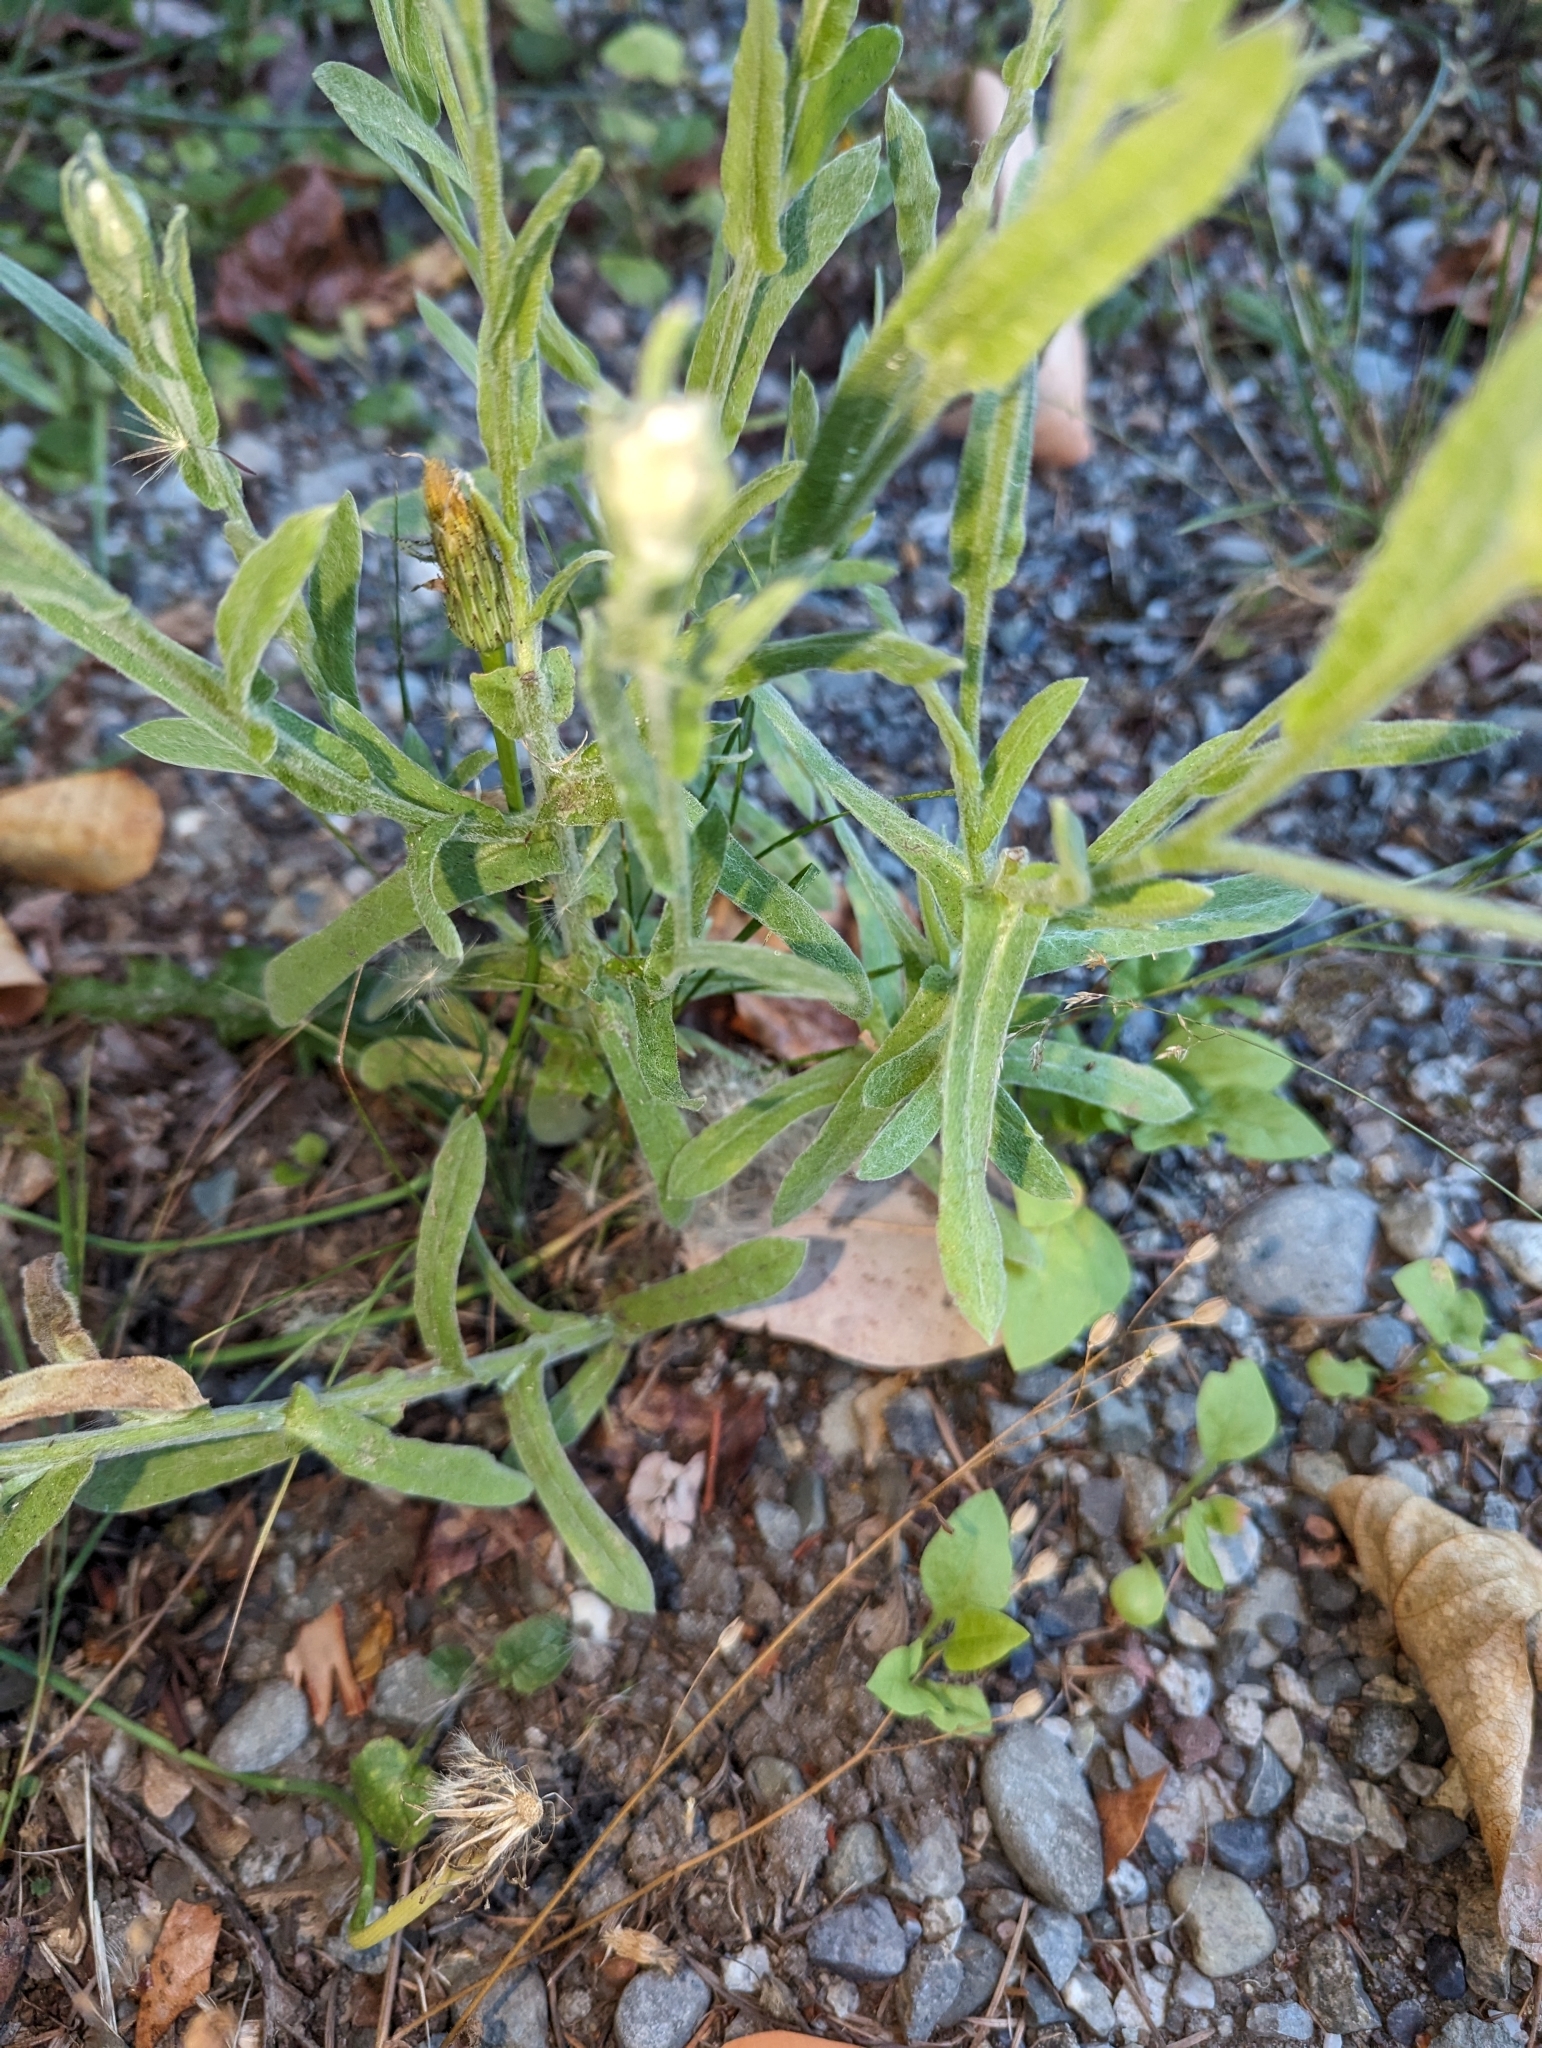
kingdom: Plantae
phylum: Tracheophyta
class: Magnoliopsida
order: Asterales
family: Asteraceae
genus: Pseudognaphalium
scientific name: Pseudognaphalium stramineum
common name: Cotton-batting-plant
